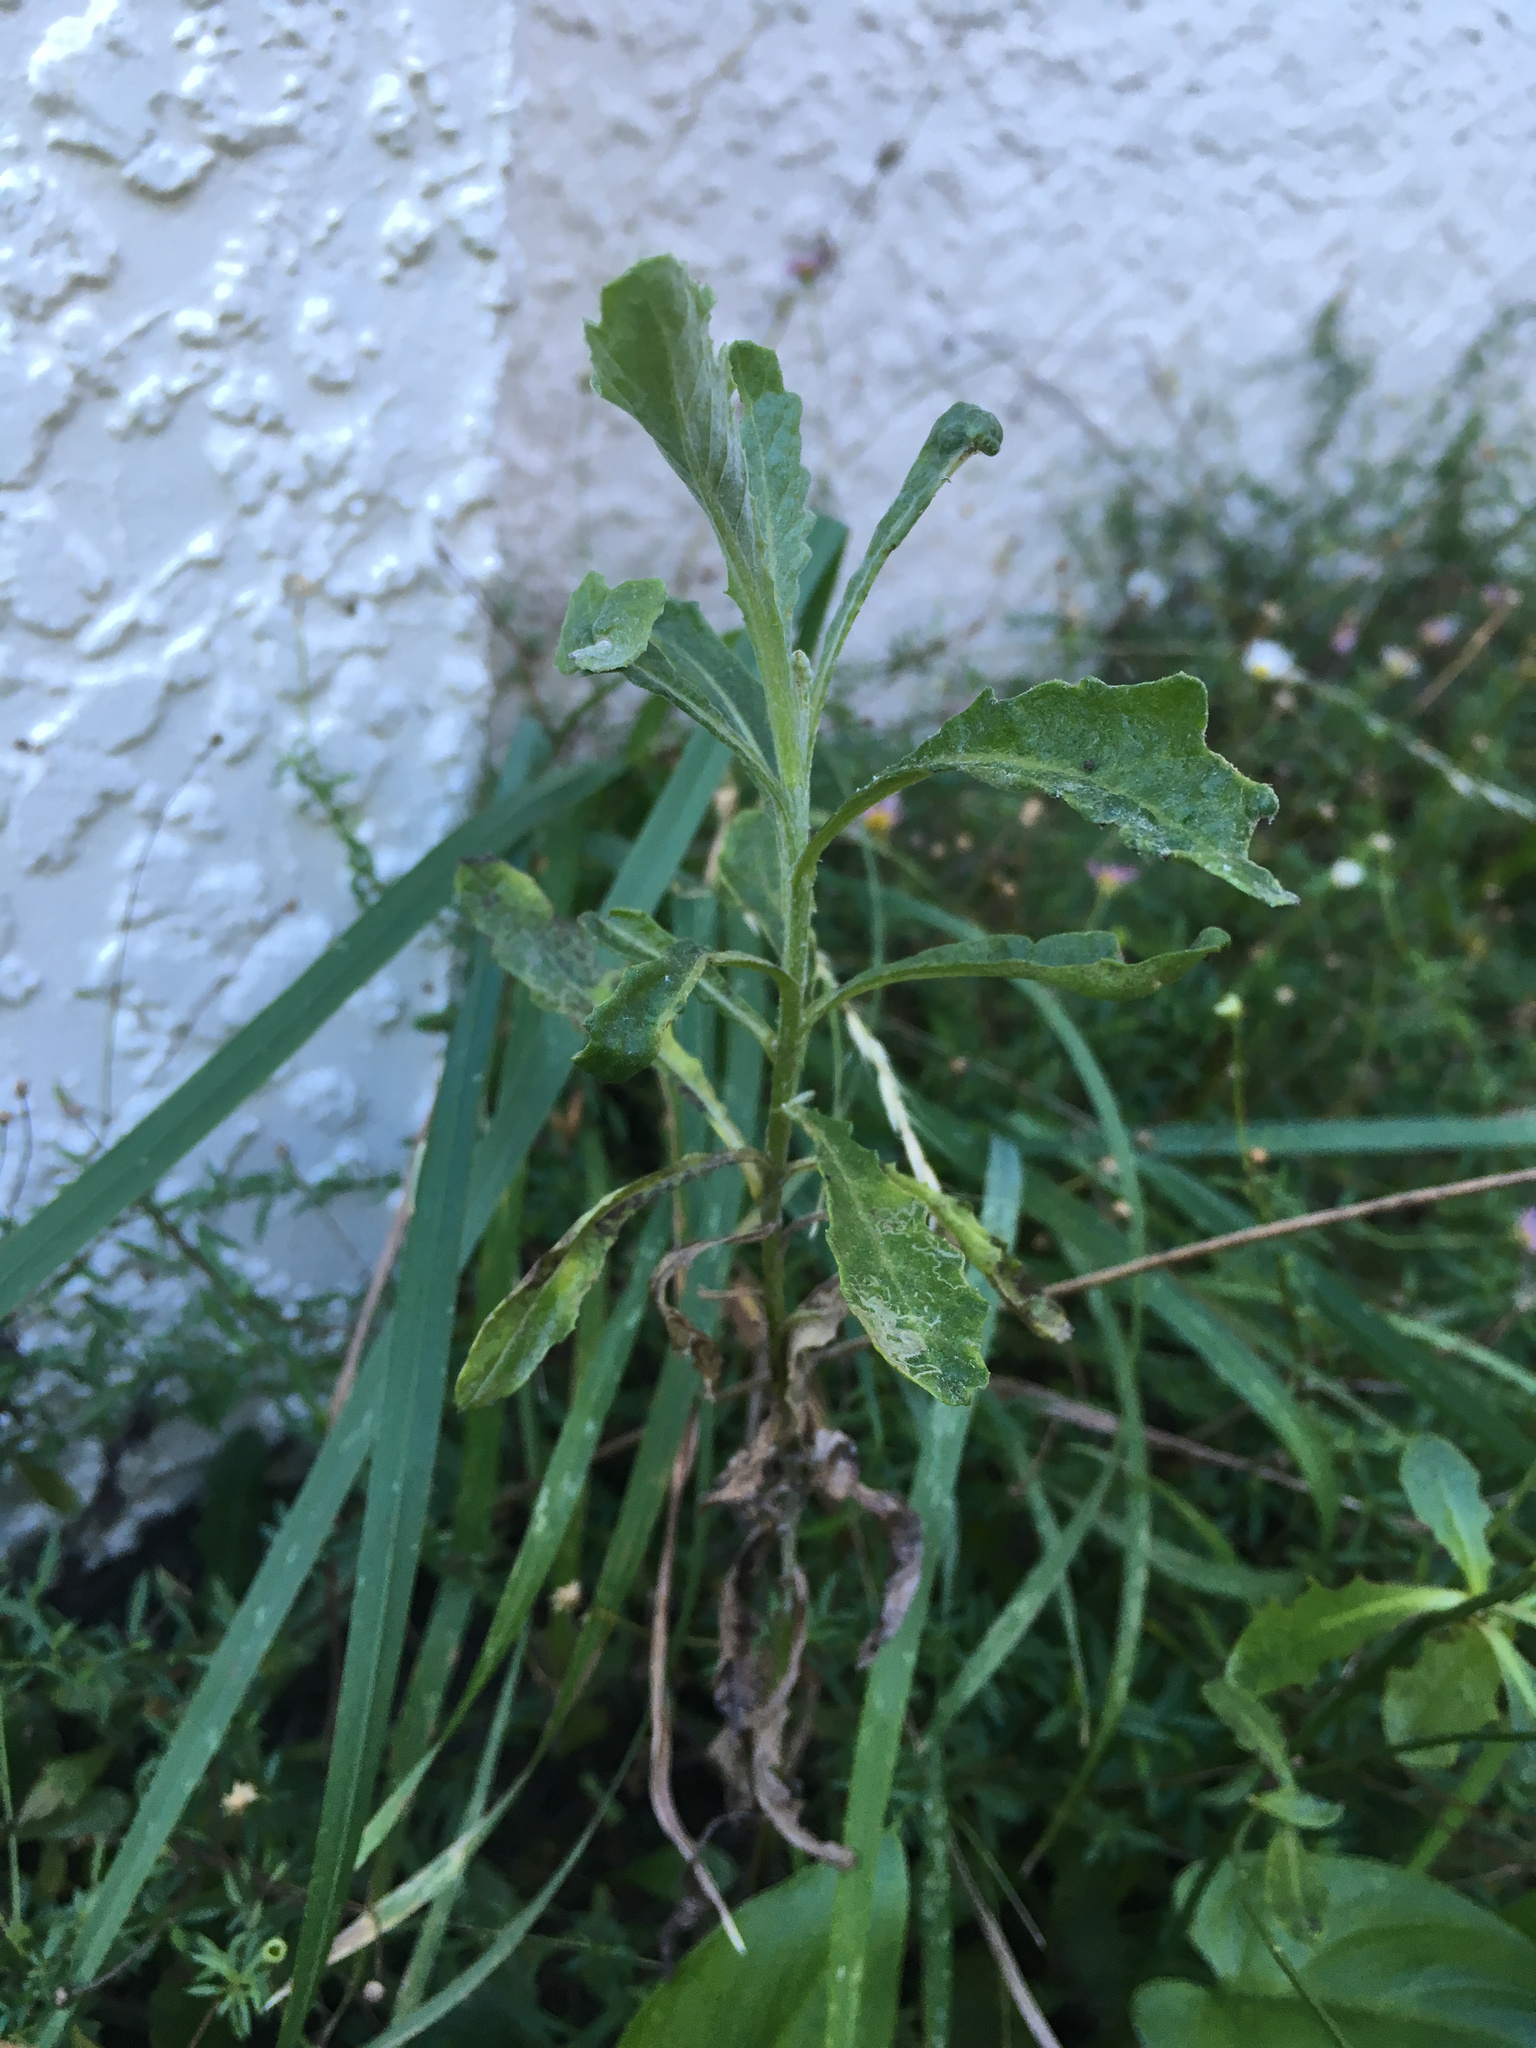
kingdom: Plantae
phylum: Tracheophyta
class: Magnoliopsida
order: Asterales
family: Asteraceae
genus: Senecio
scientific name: Senecio glomeratus
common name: Cutleaf burnweed
